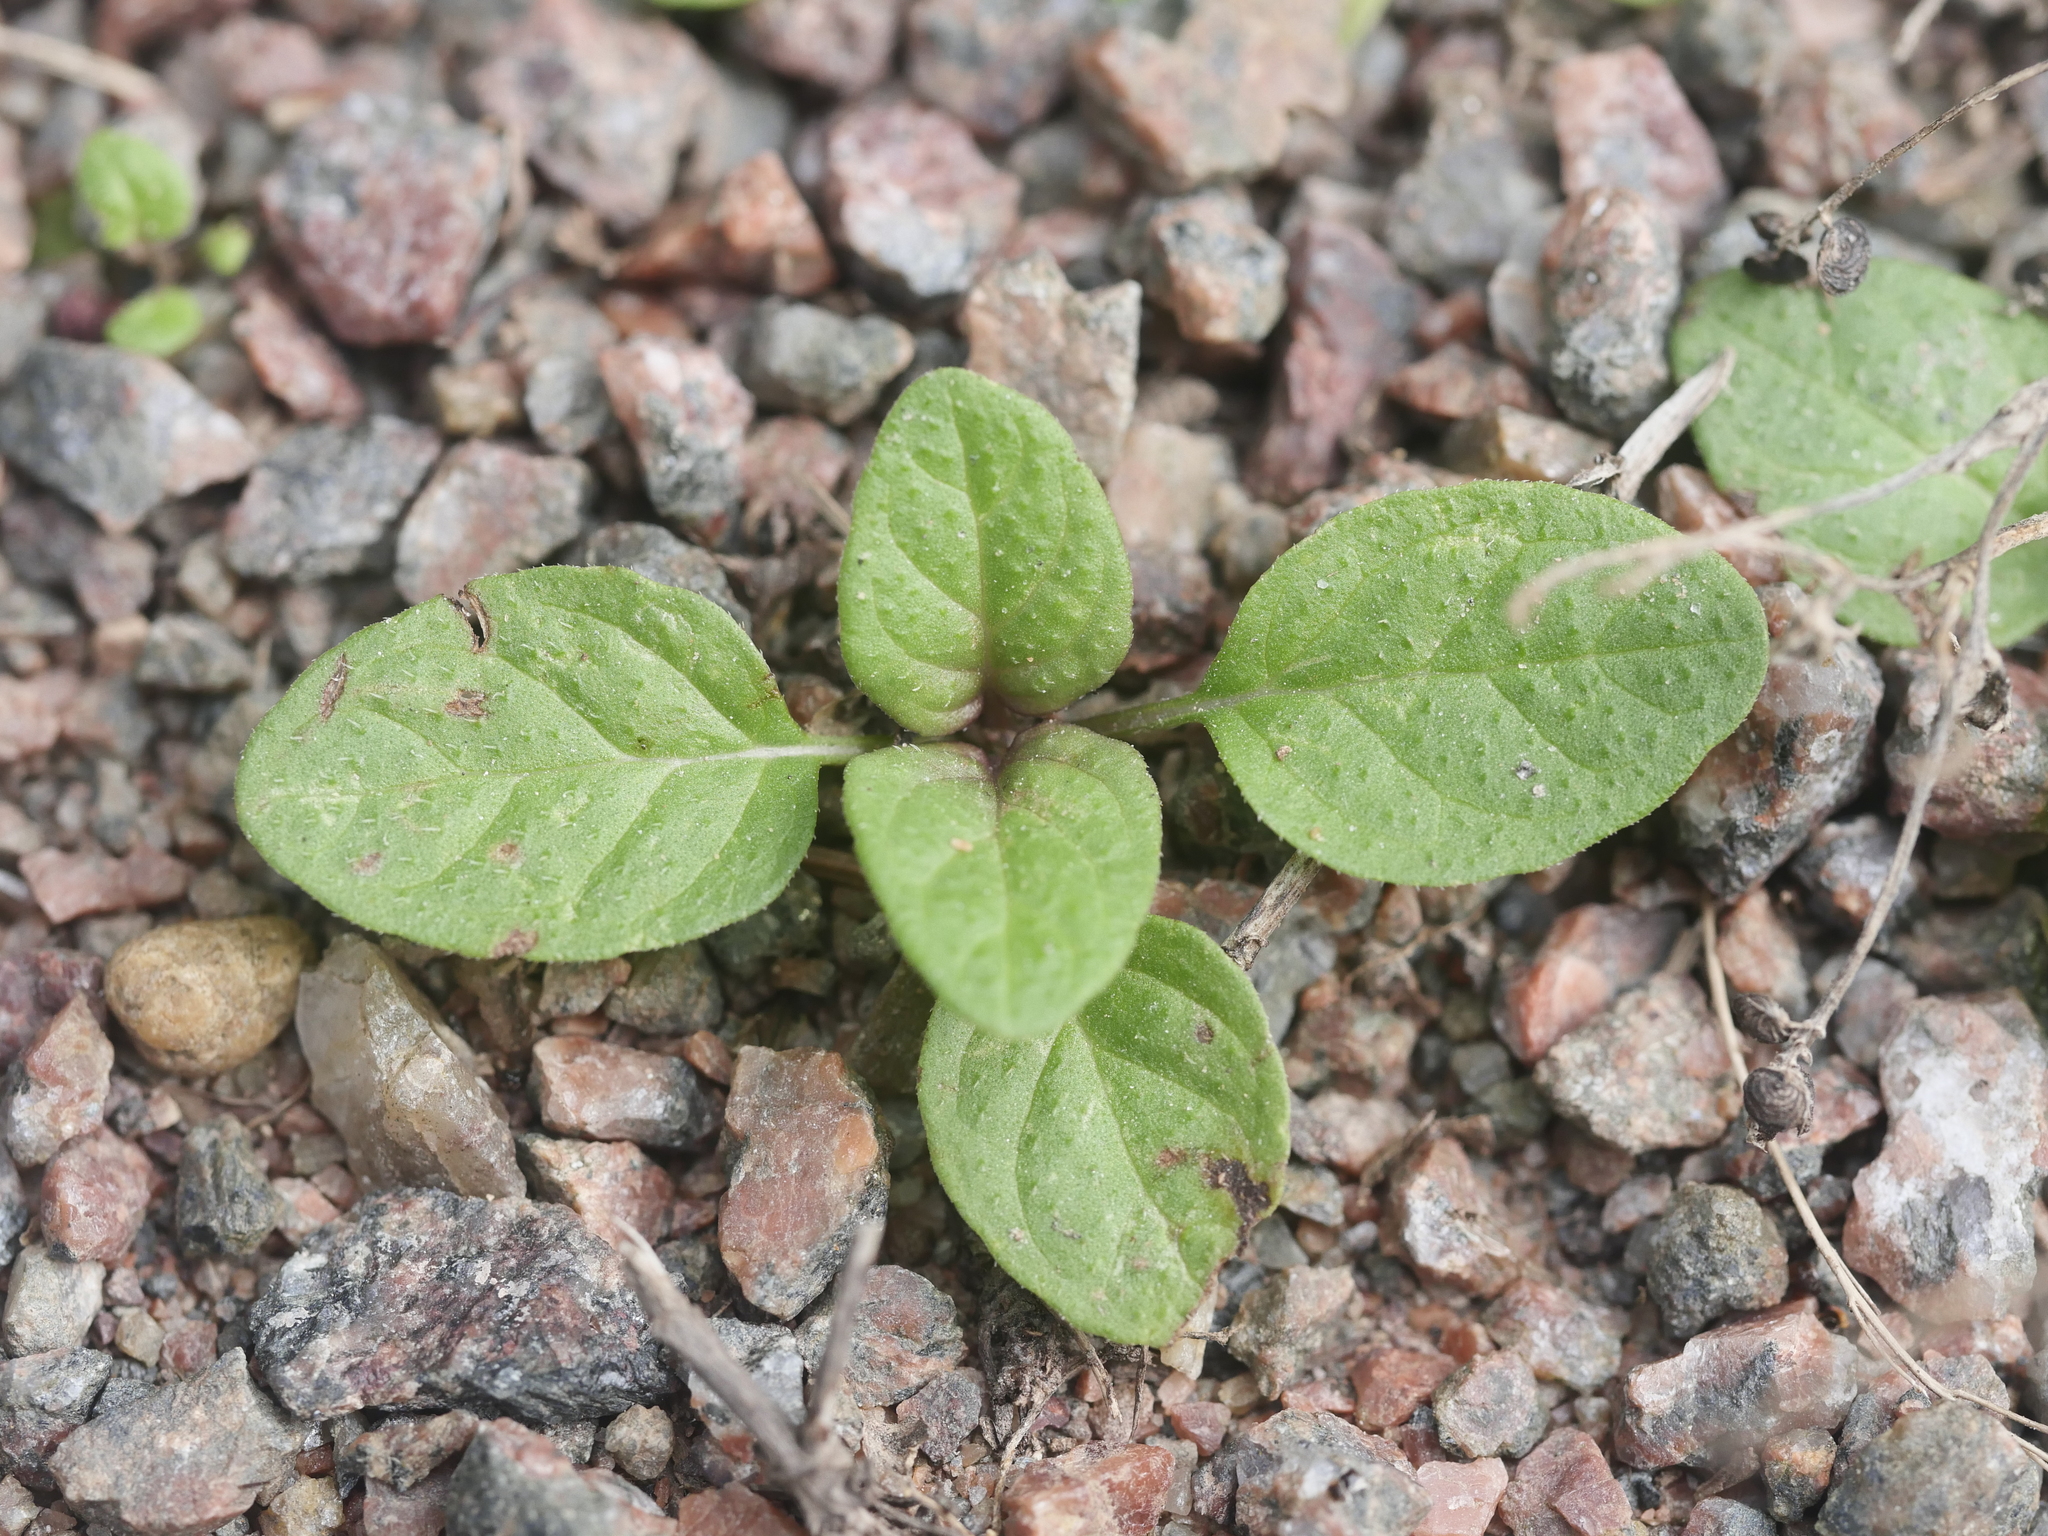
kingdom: Plantae
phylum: Tracheophyta
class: Magnoliopsida
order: Lamiales
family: Lamiaceae
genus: Prunella
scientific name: Prunella vulgaris
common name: Heal-all
